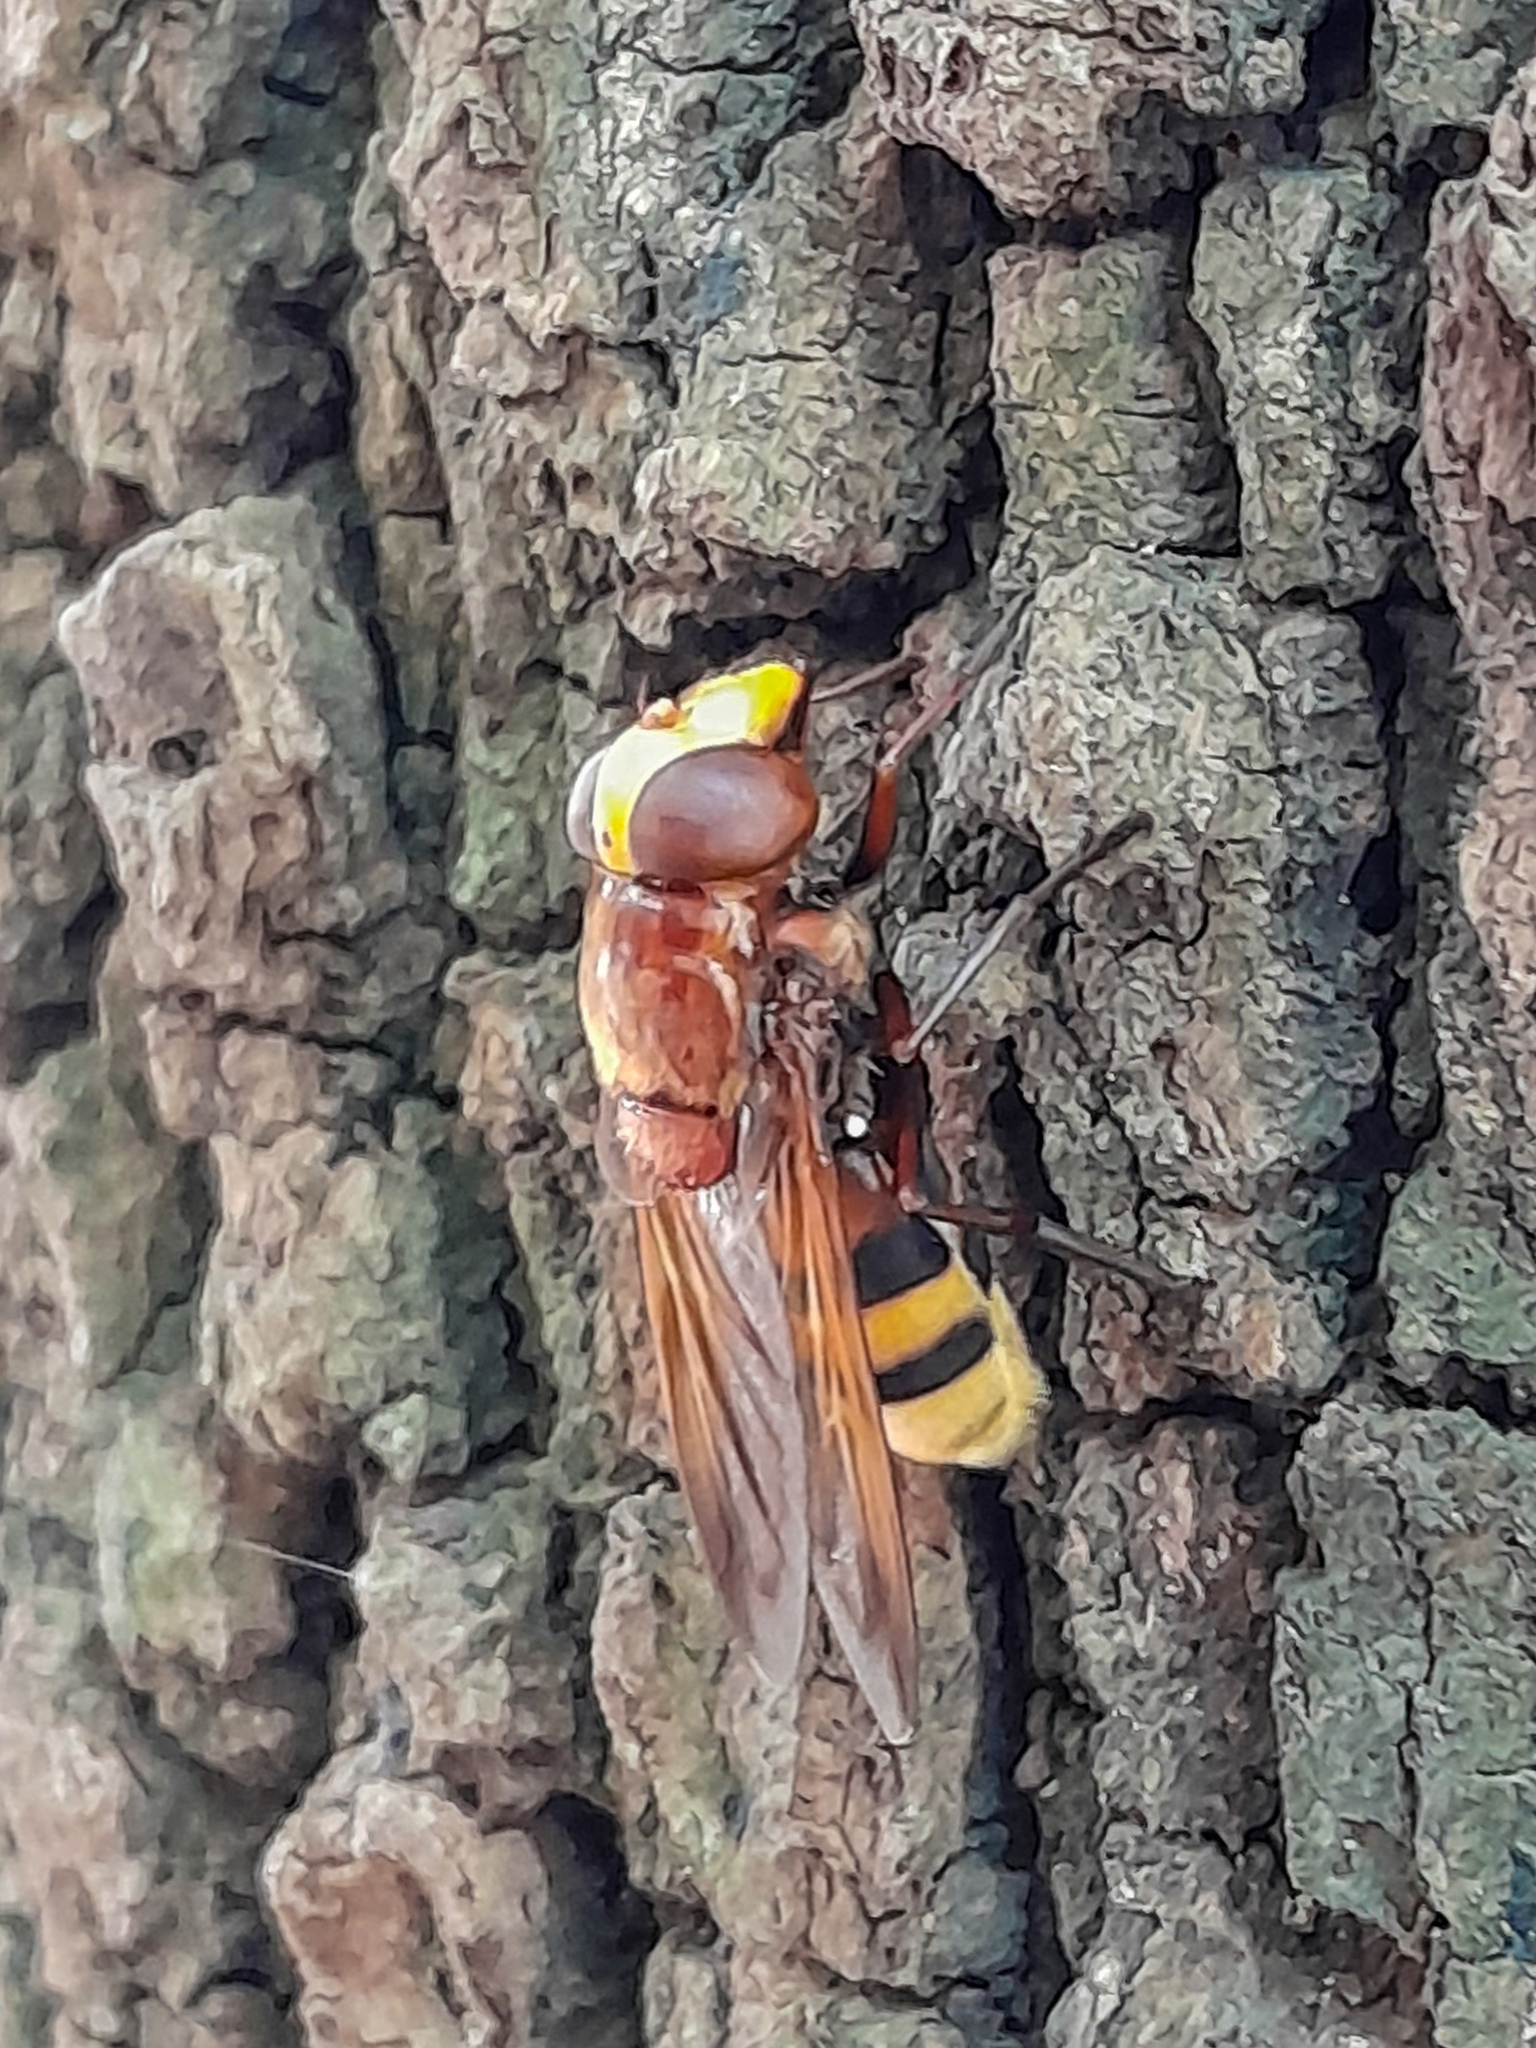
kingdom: Animalia
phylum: Arthropoda
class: Insecta
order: Diptera
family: Syrphidae
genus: Volucella
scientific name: Volucella zonaria
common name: Hornet hoverfly
